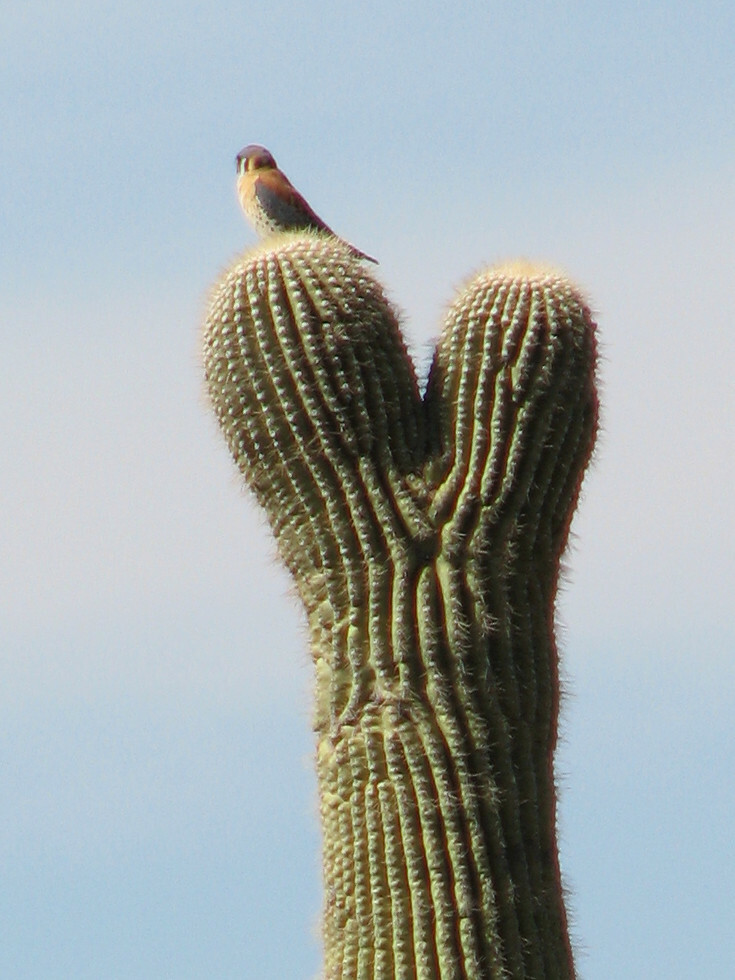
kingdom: Animalia
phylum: Chordata
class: Aves
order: Falconiformes
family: Falconidae
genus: Falco
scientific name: Falco sparverius
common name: American kestrel
